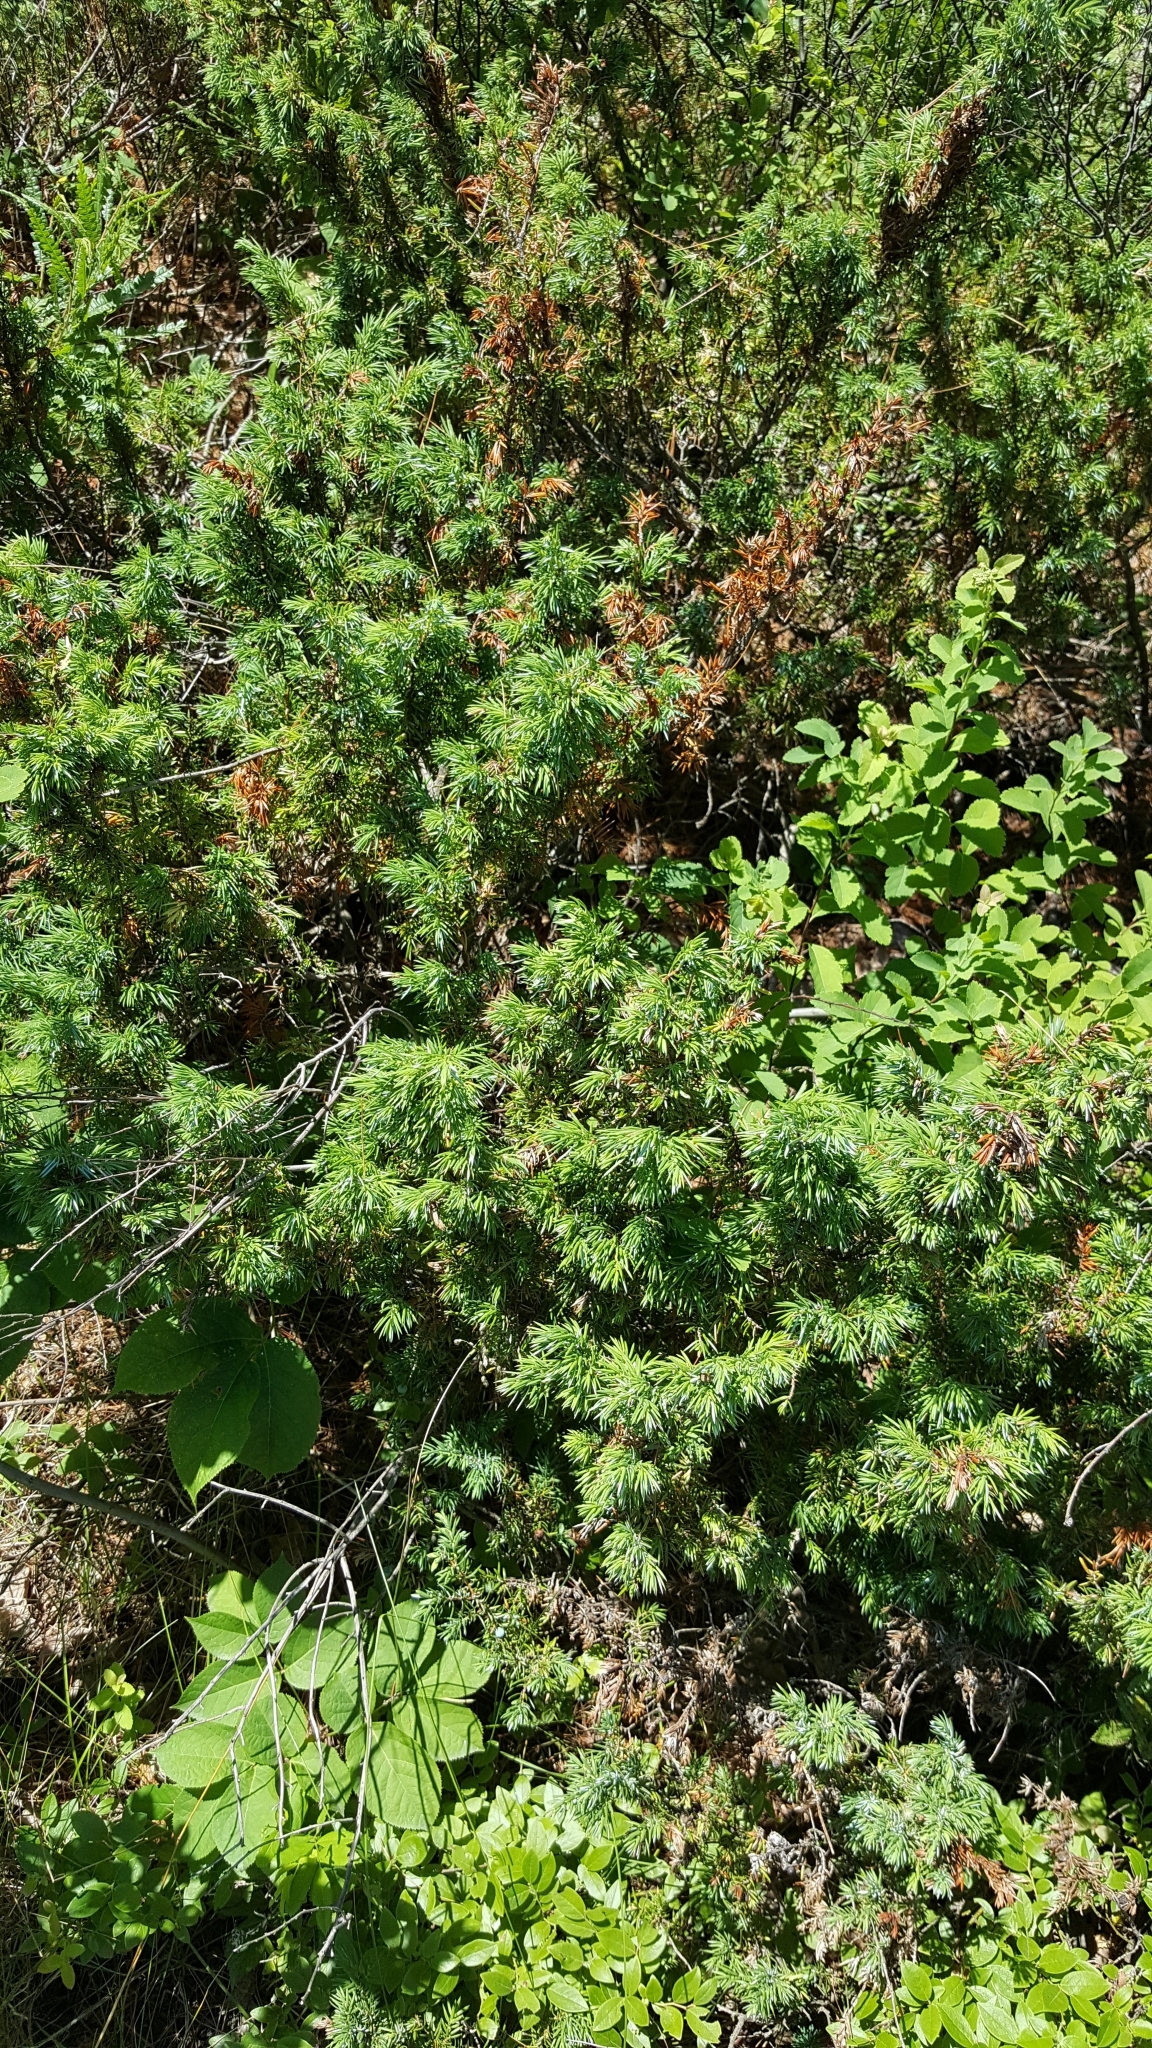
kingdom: Plantae
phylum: Tracheophyta
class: Pinopsida
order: Pinales
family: Cupressaceae
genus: Juniperus
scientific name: Juniperus communis
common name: Common juniper
